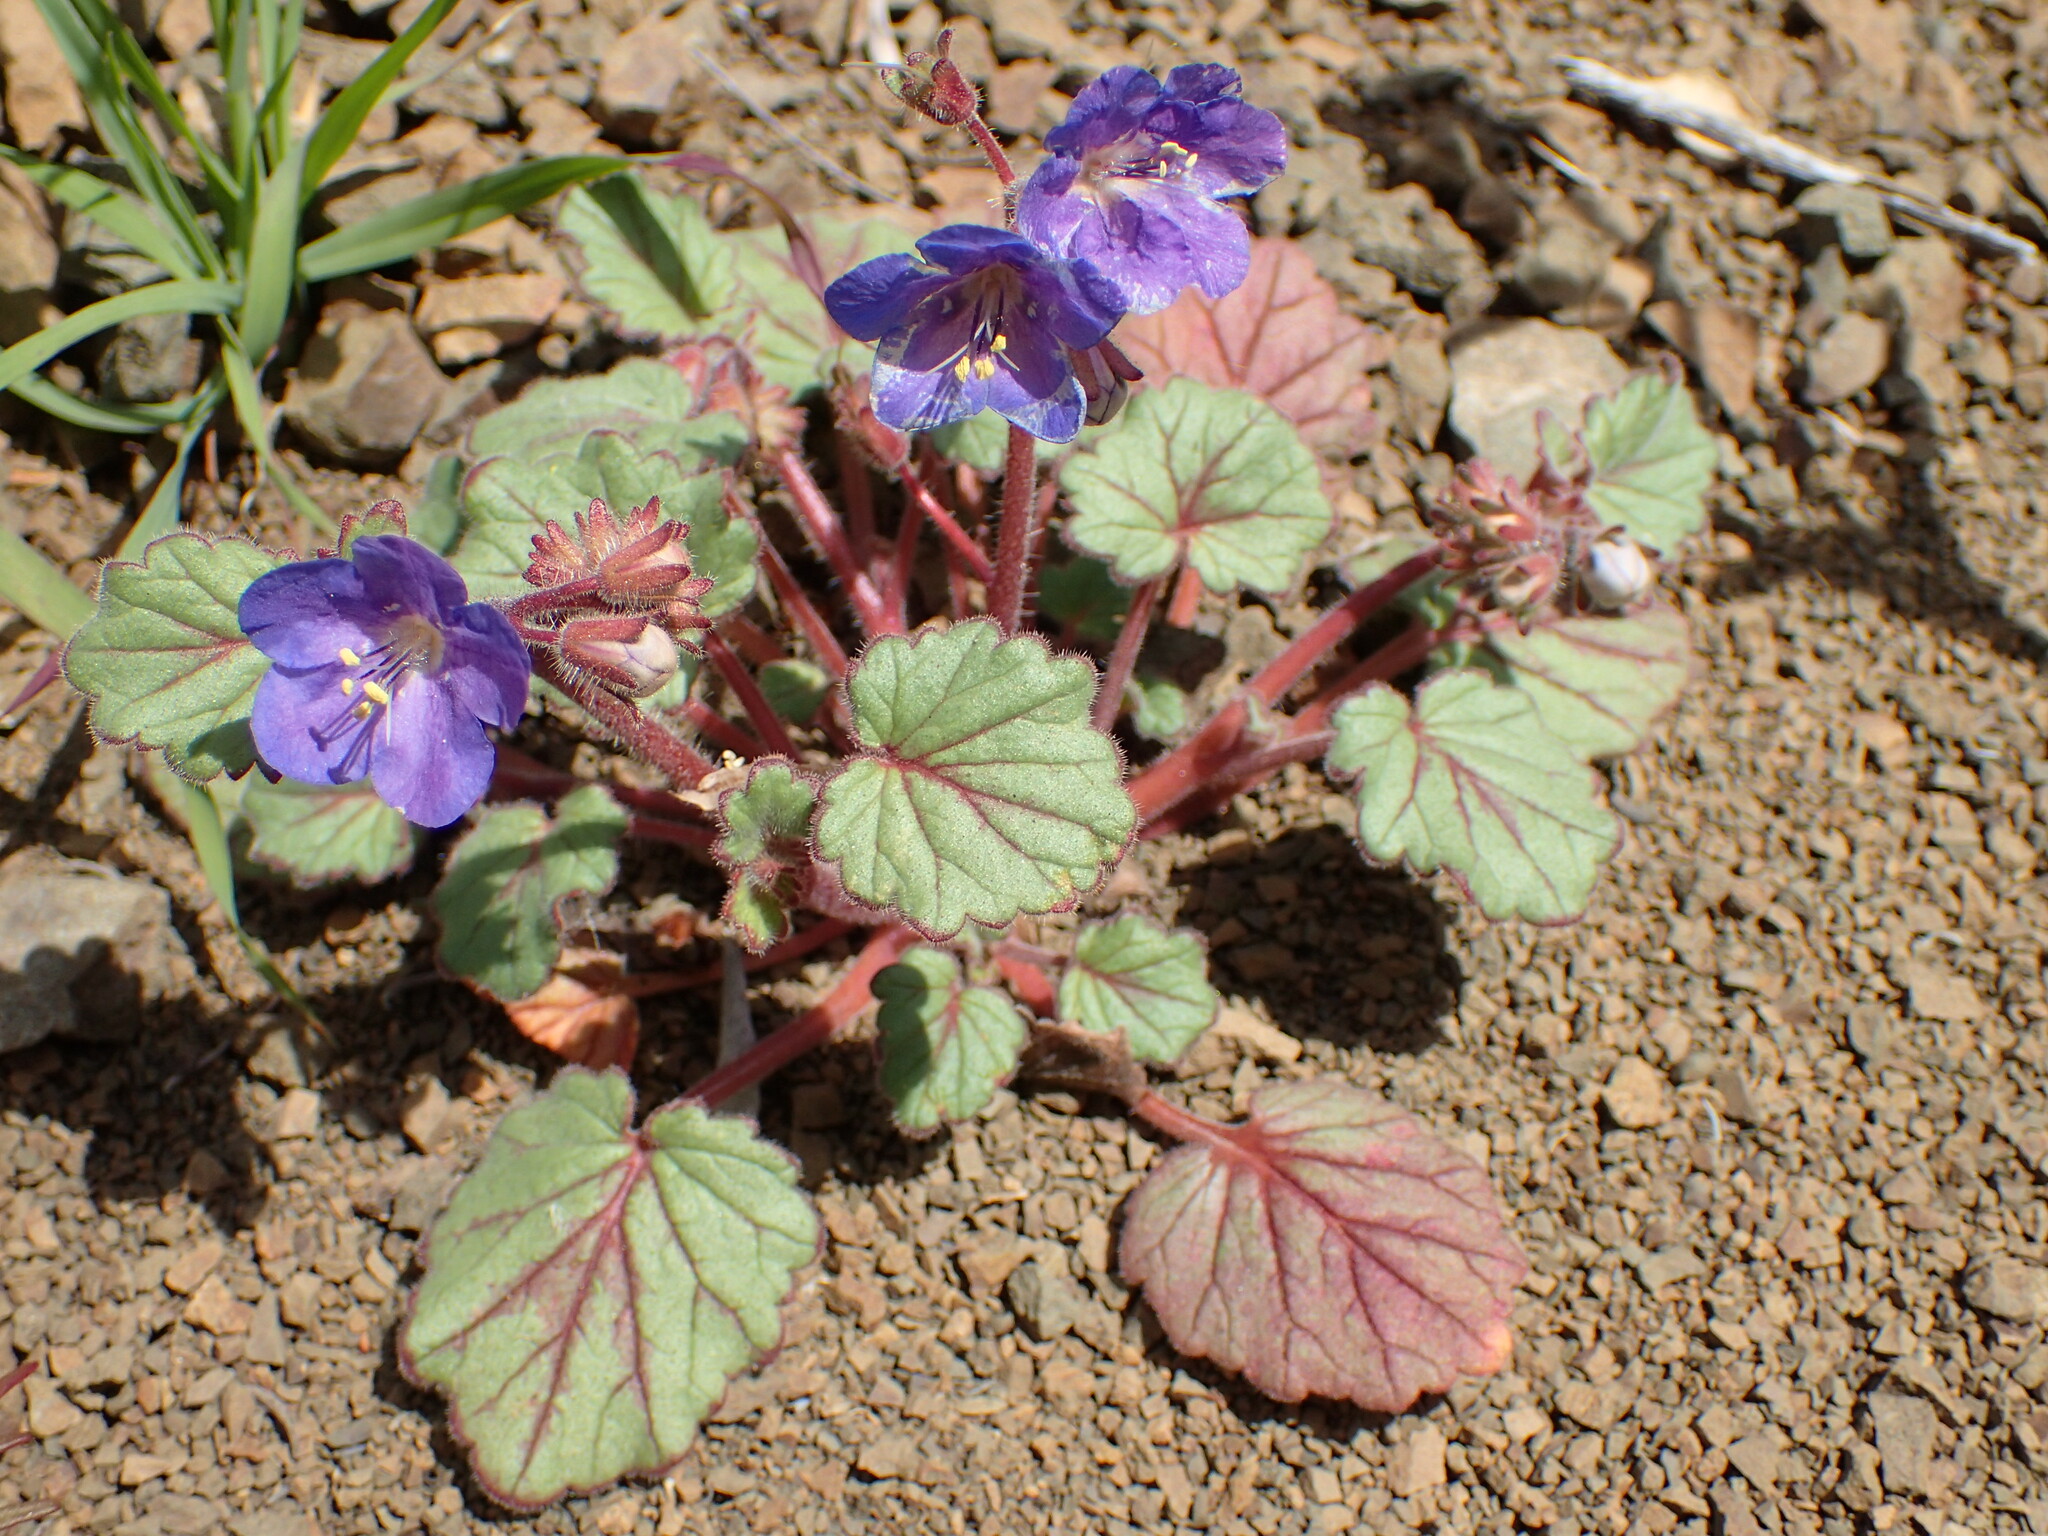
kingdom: Plantae
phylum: Tracheophyta
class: Magnoliopsida
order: Boraginales
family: Hydrophyllaceae
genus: Phacelia
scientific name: Phacelia longipes
